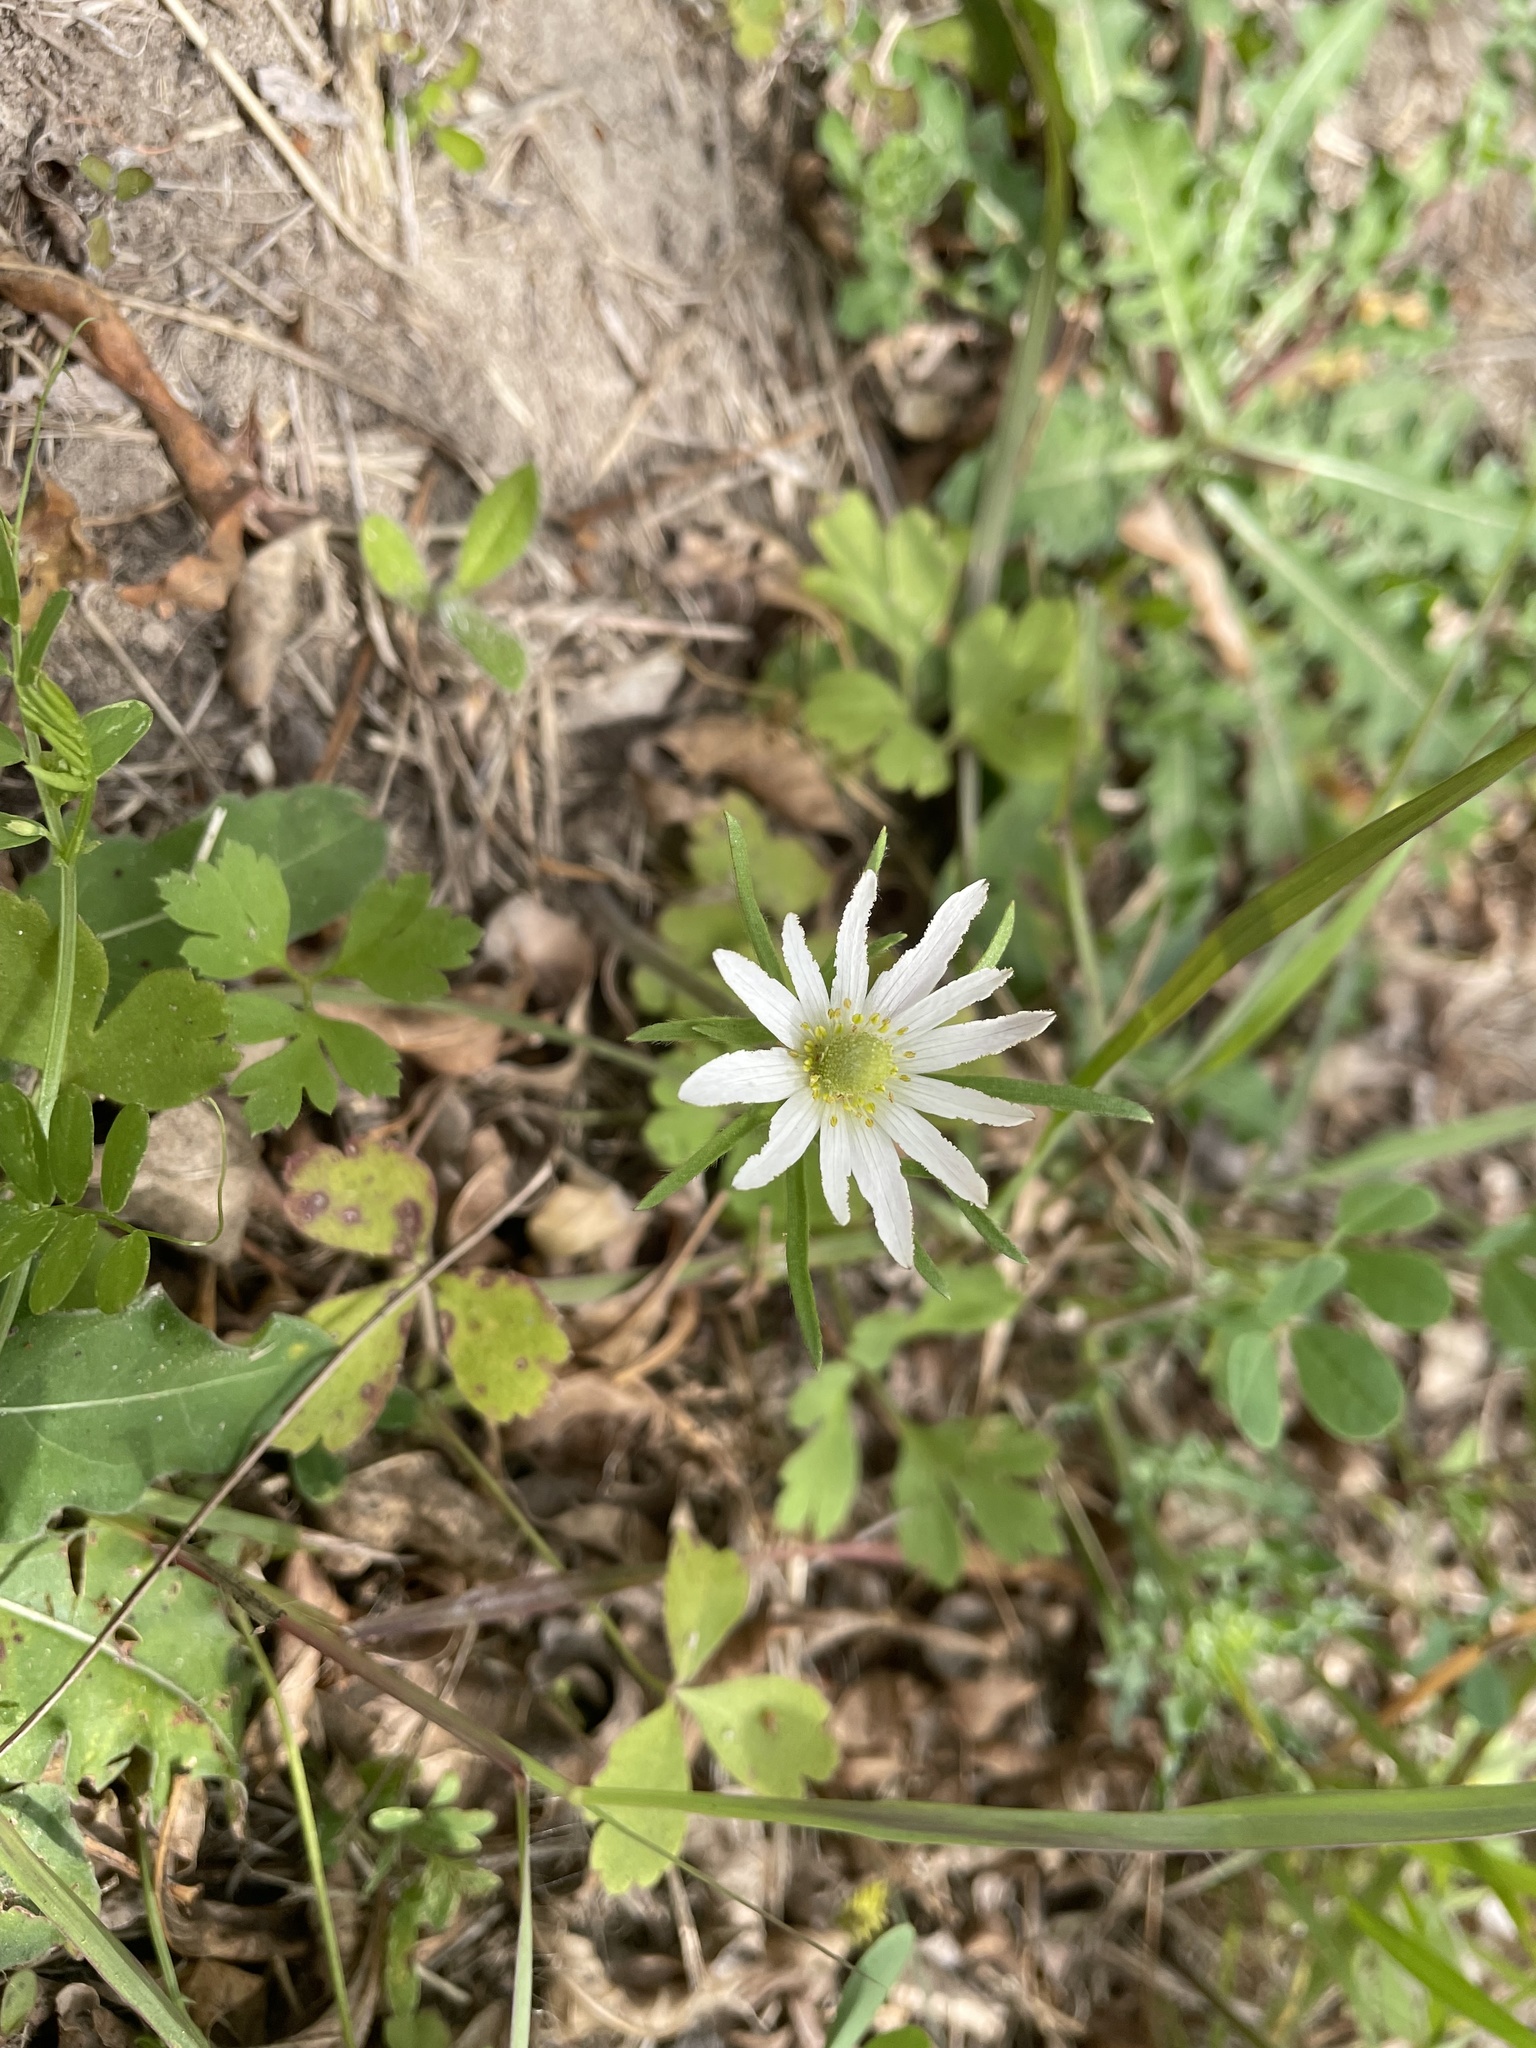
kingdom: Plantae
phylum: Tracheophyta
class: Magnoliopsida
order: Ranunculales
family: Ranunculaceae
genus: Anemone
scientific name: Anemone berlandieri
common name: Ten-petal anemone
